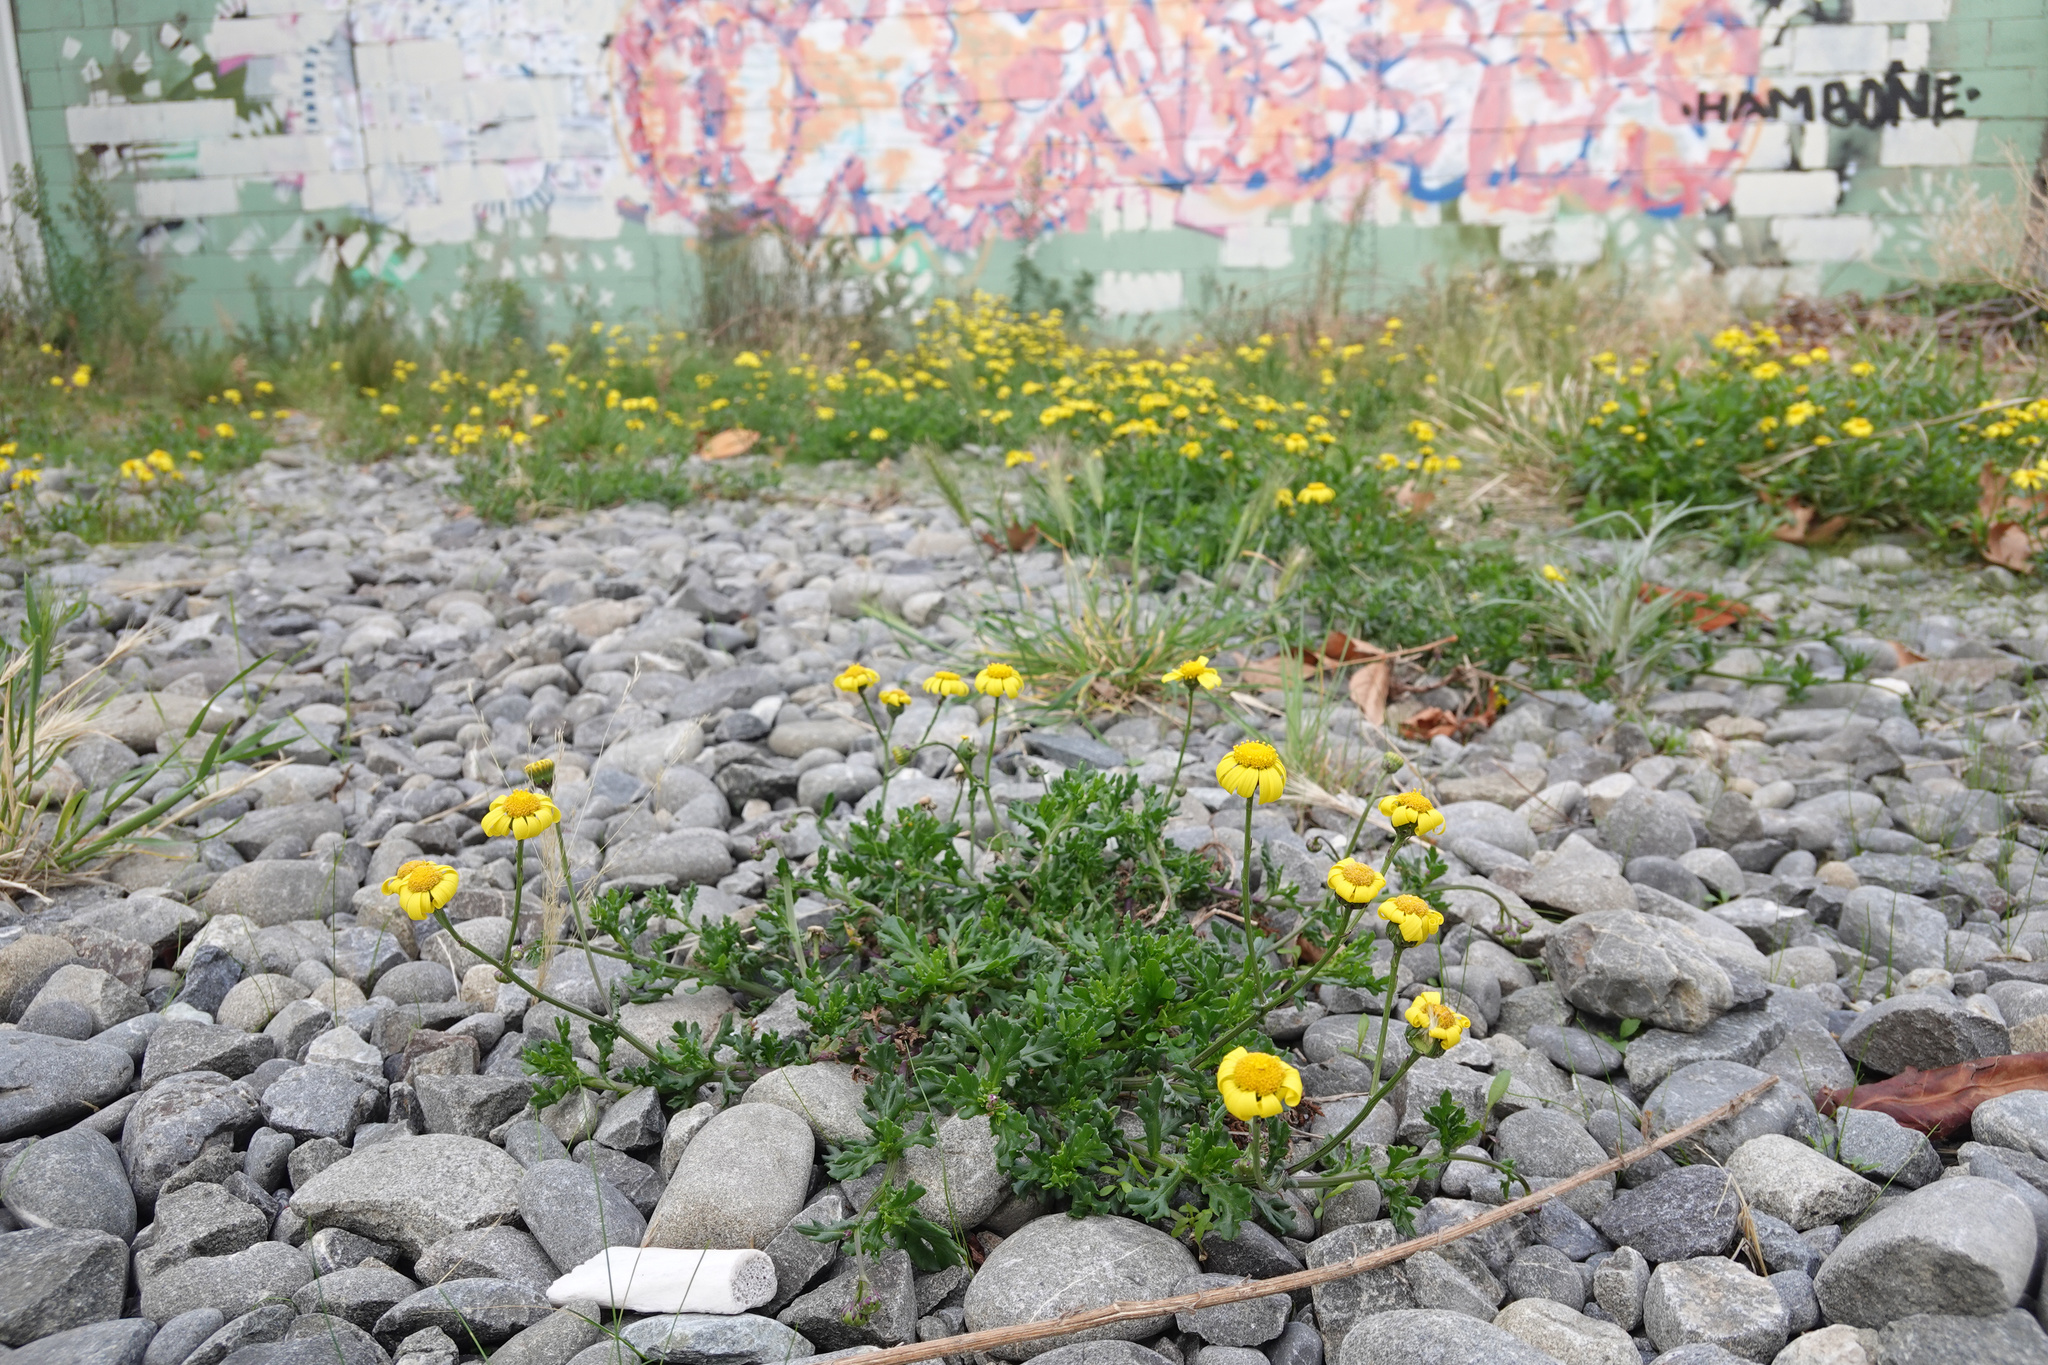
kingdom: Plantae
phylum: Tracheophyta
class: Magnoliopsida
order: Asterales
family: Asteraceae
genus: Senecio
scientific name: Senecio skirrhodon
